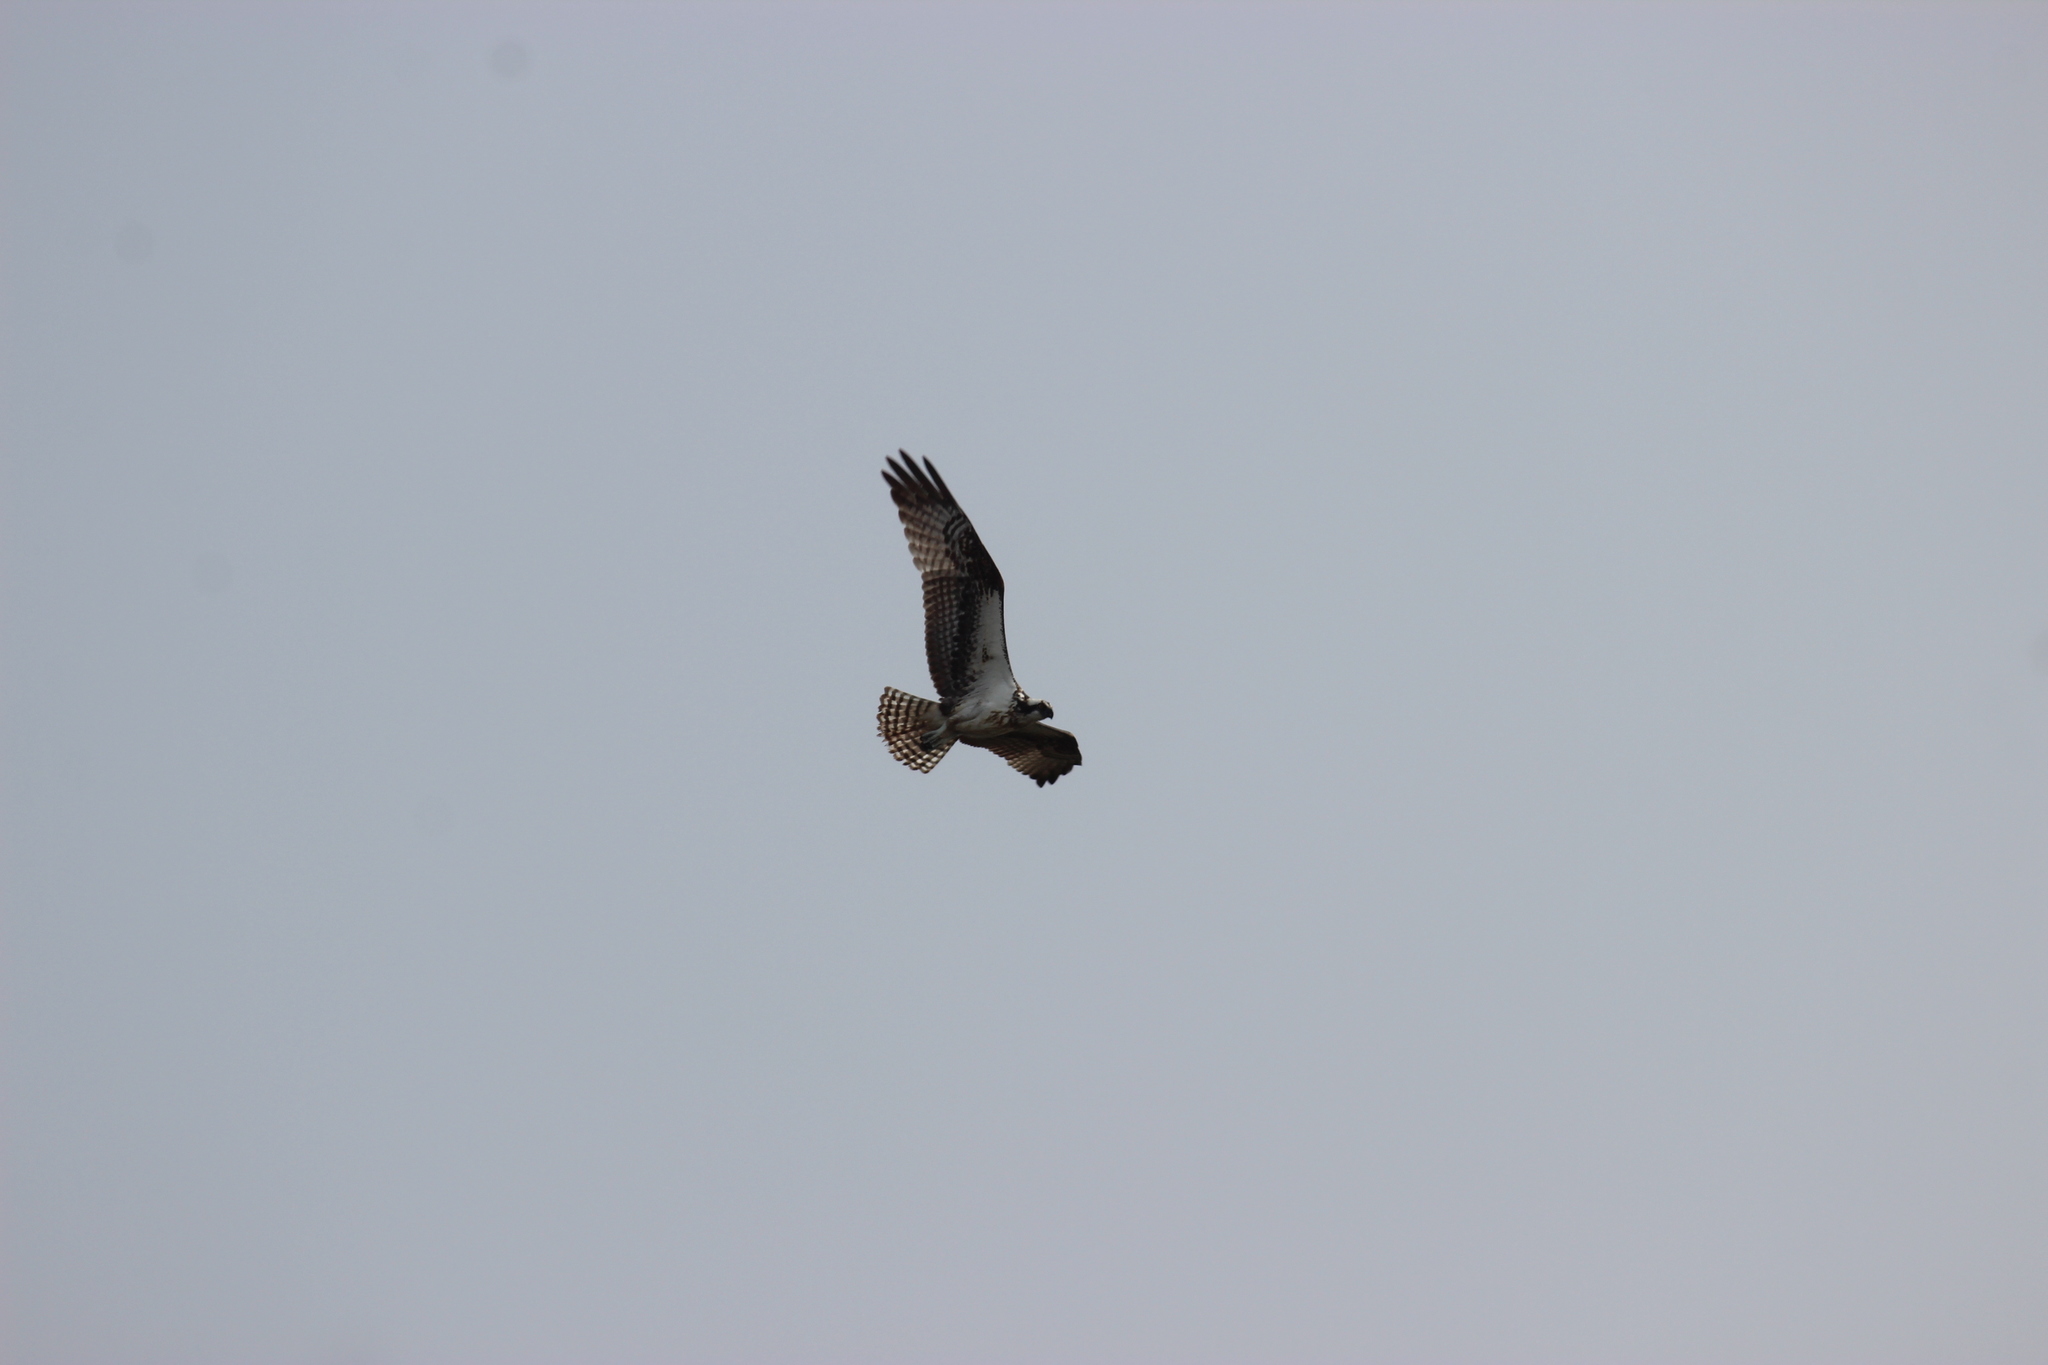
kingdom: Animalia
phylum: Chordata
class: Aves
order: Accipitriformes
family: Pandionidae
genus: Pandion
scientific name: Pandion haliaetus
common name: Osprey
